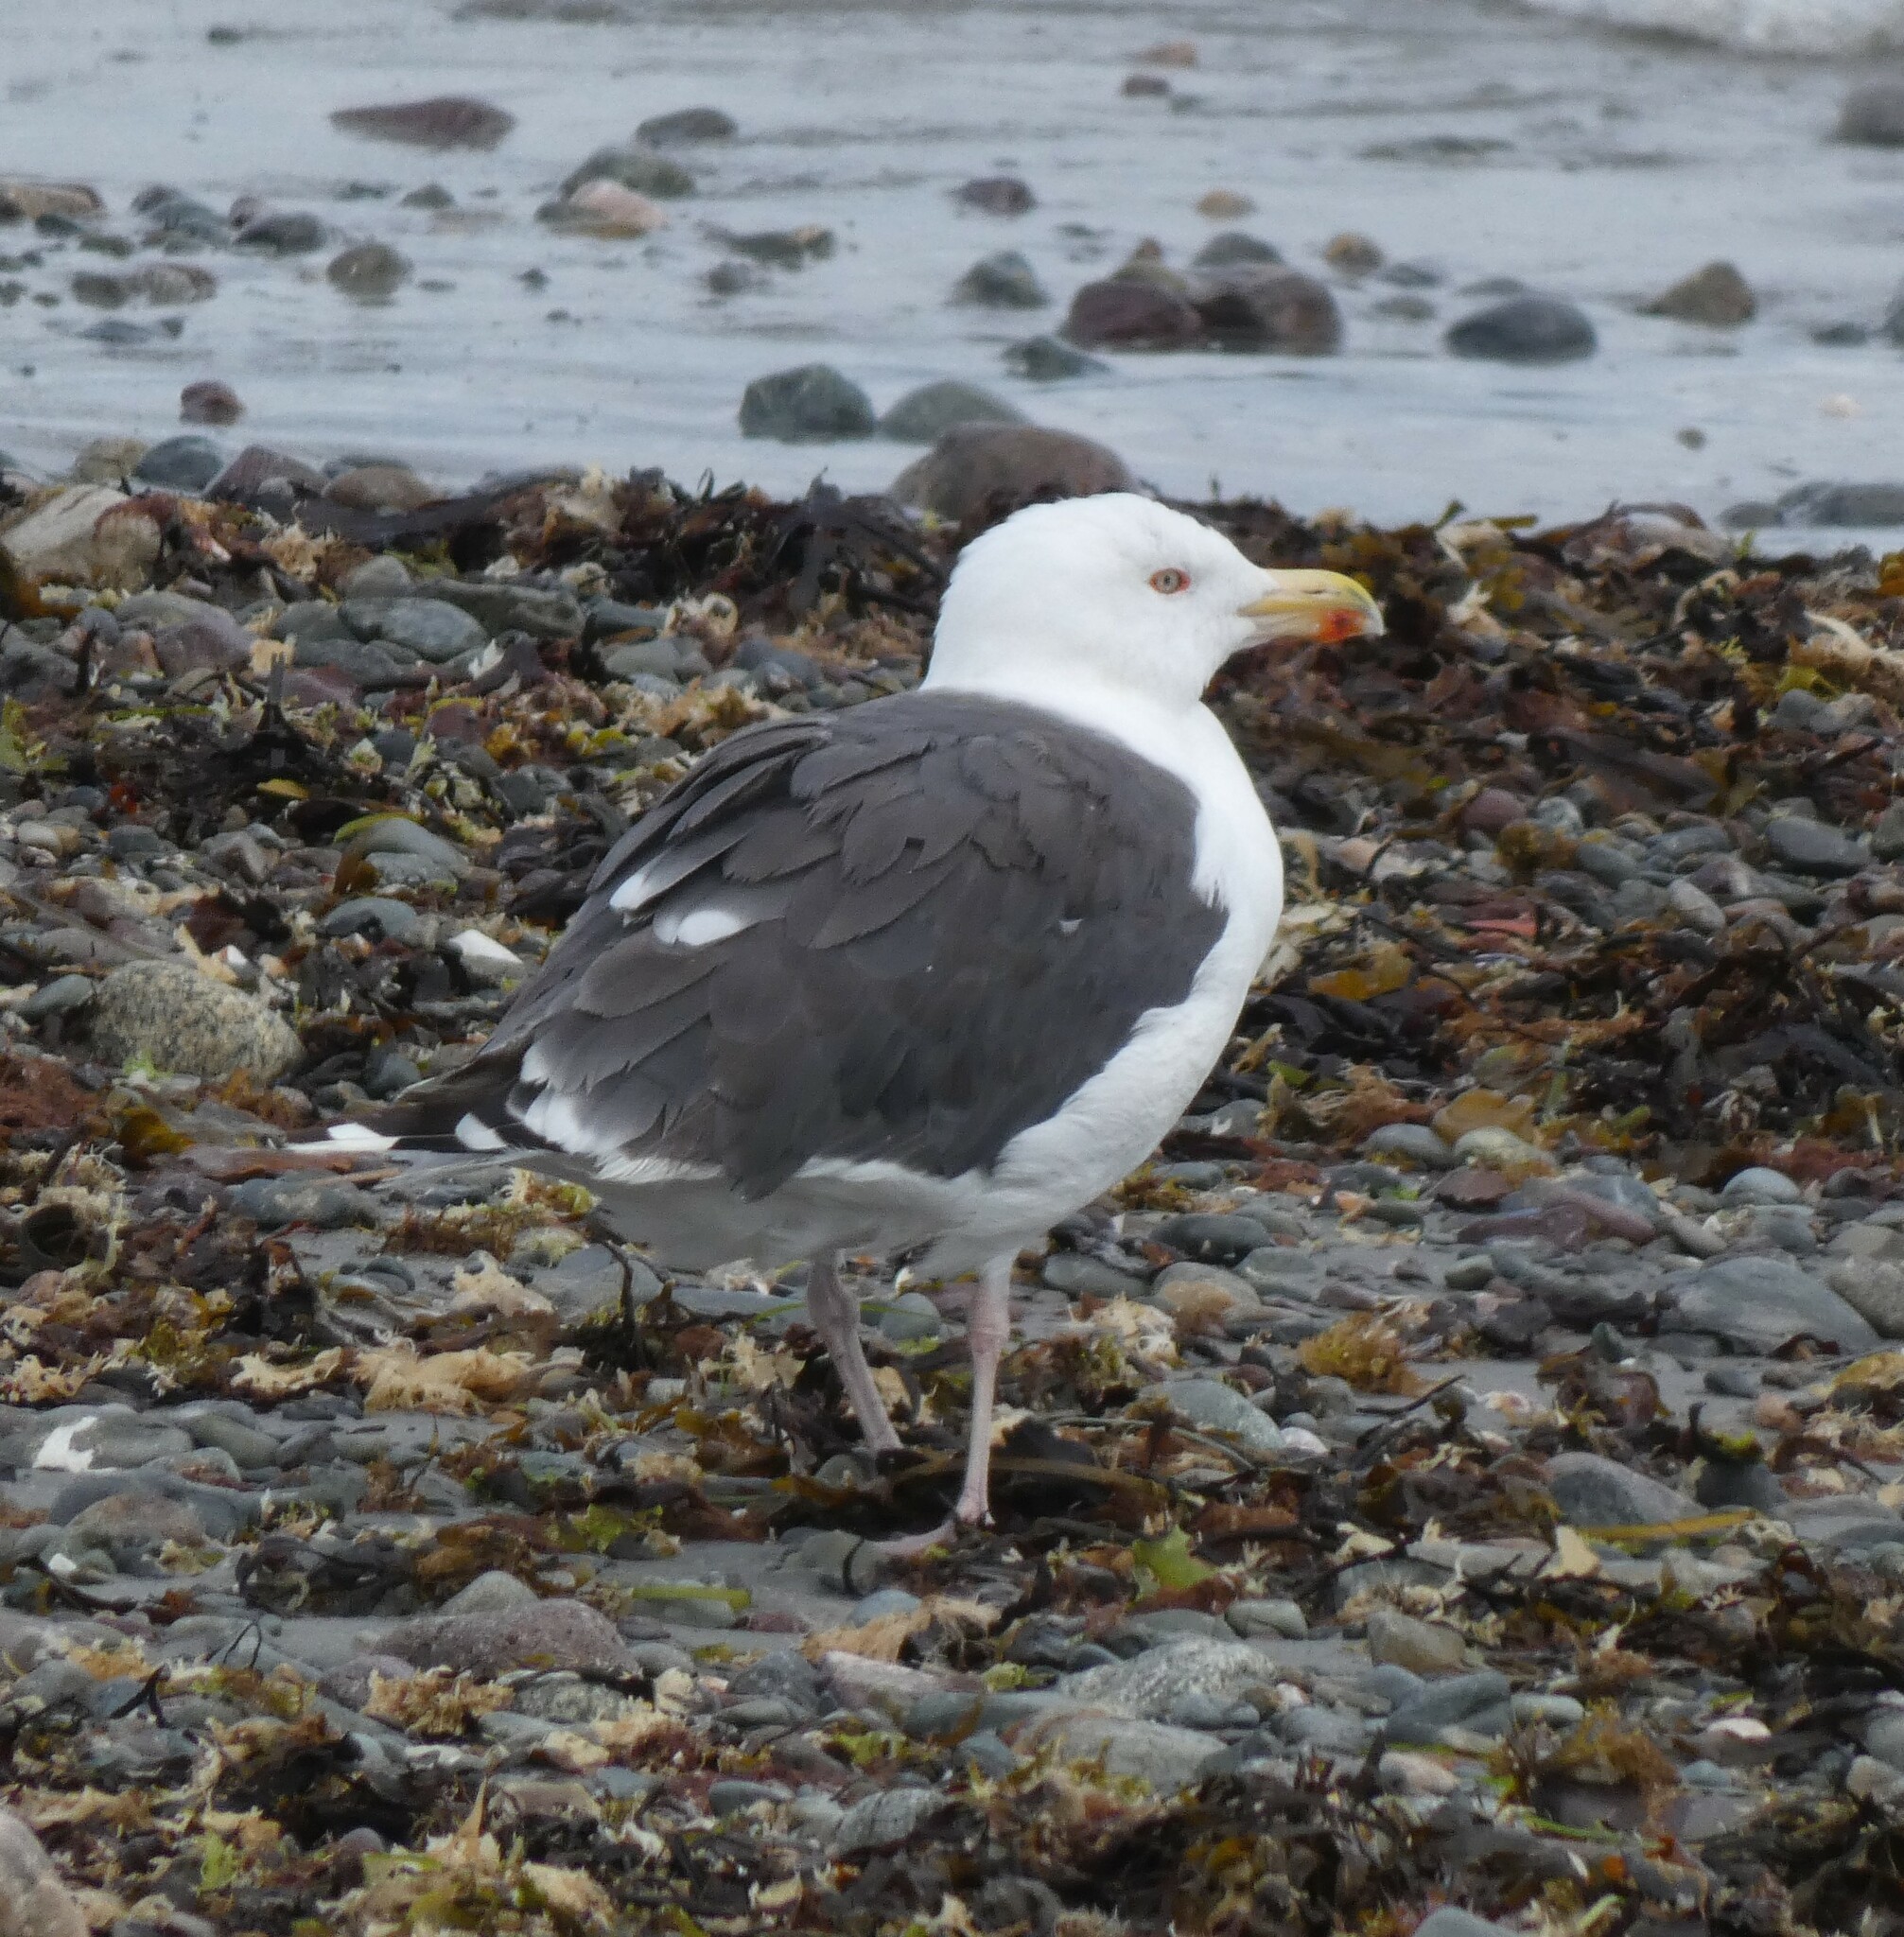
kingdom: Animalia
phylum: Chordata
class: Aves
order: Charadriiformes
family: Laridae
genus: Larus
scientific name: Larus marinus
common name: Great black-backed gull
